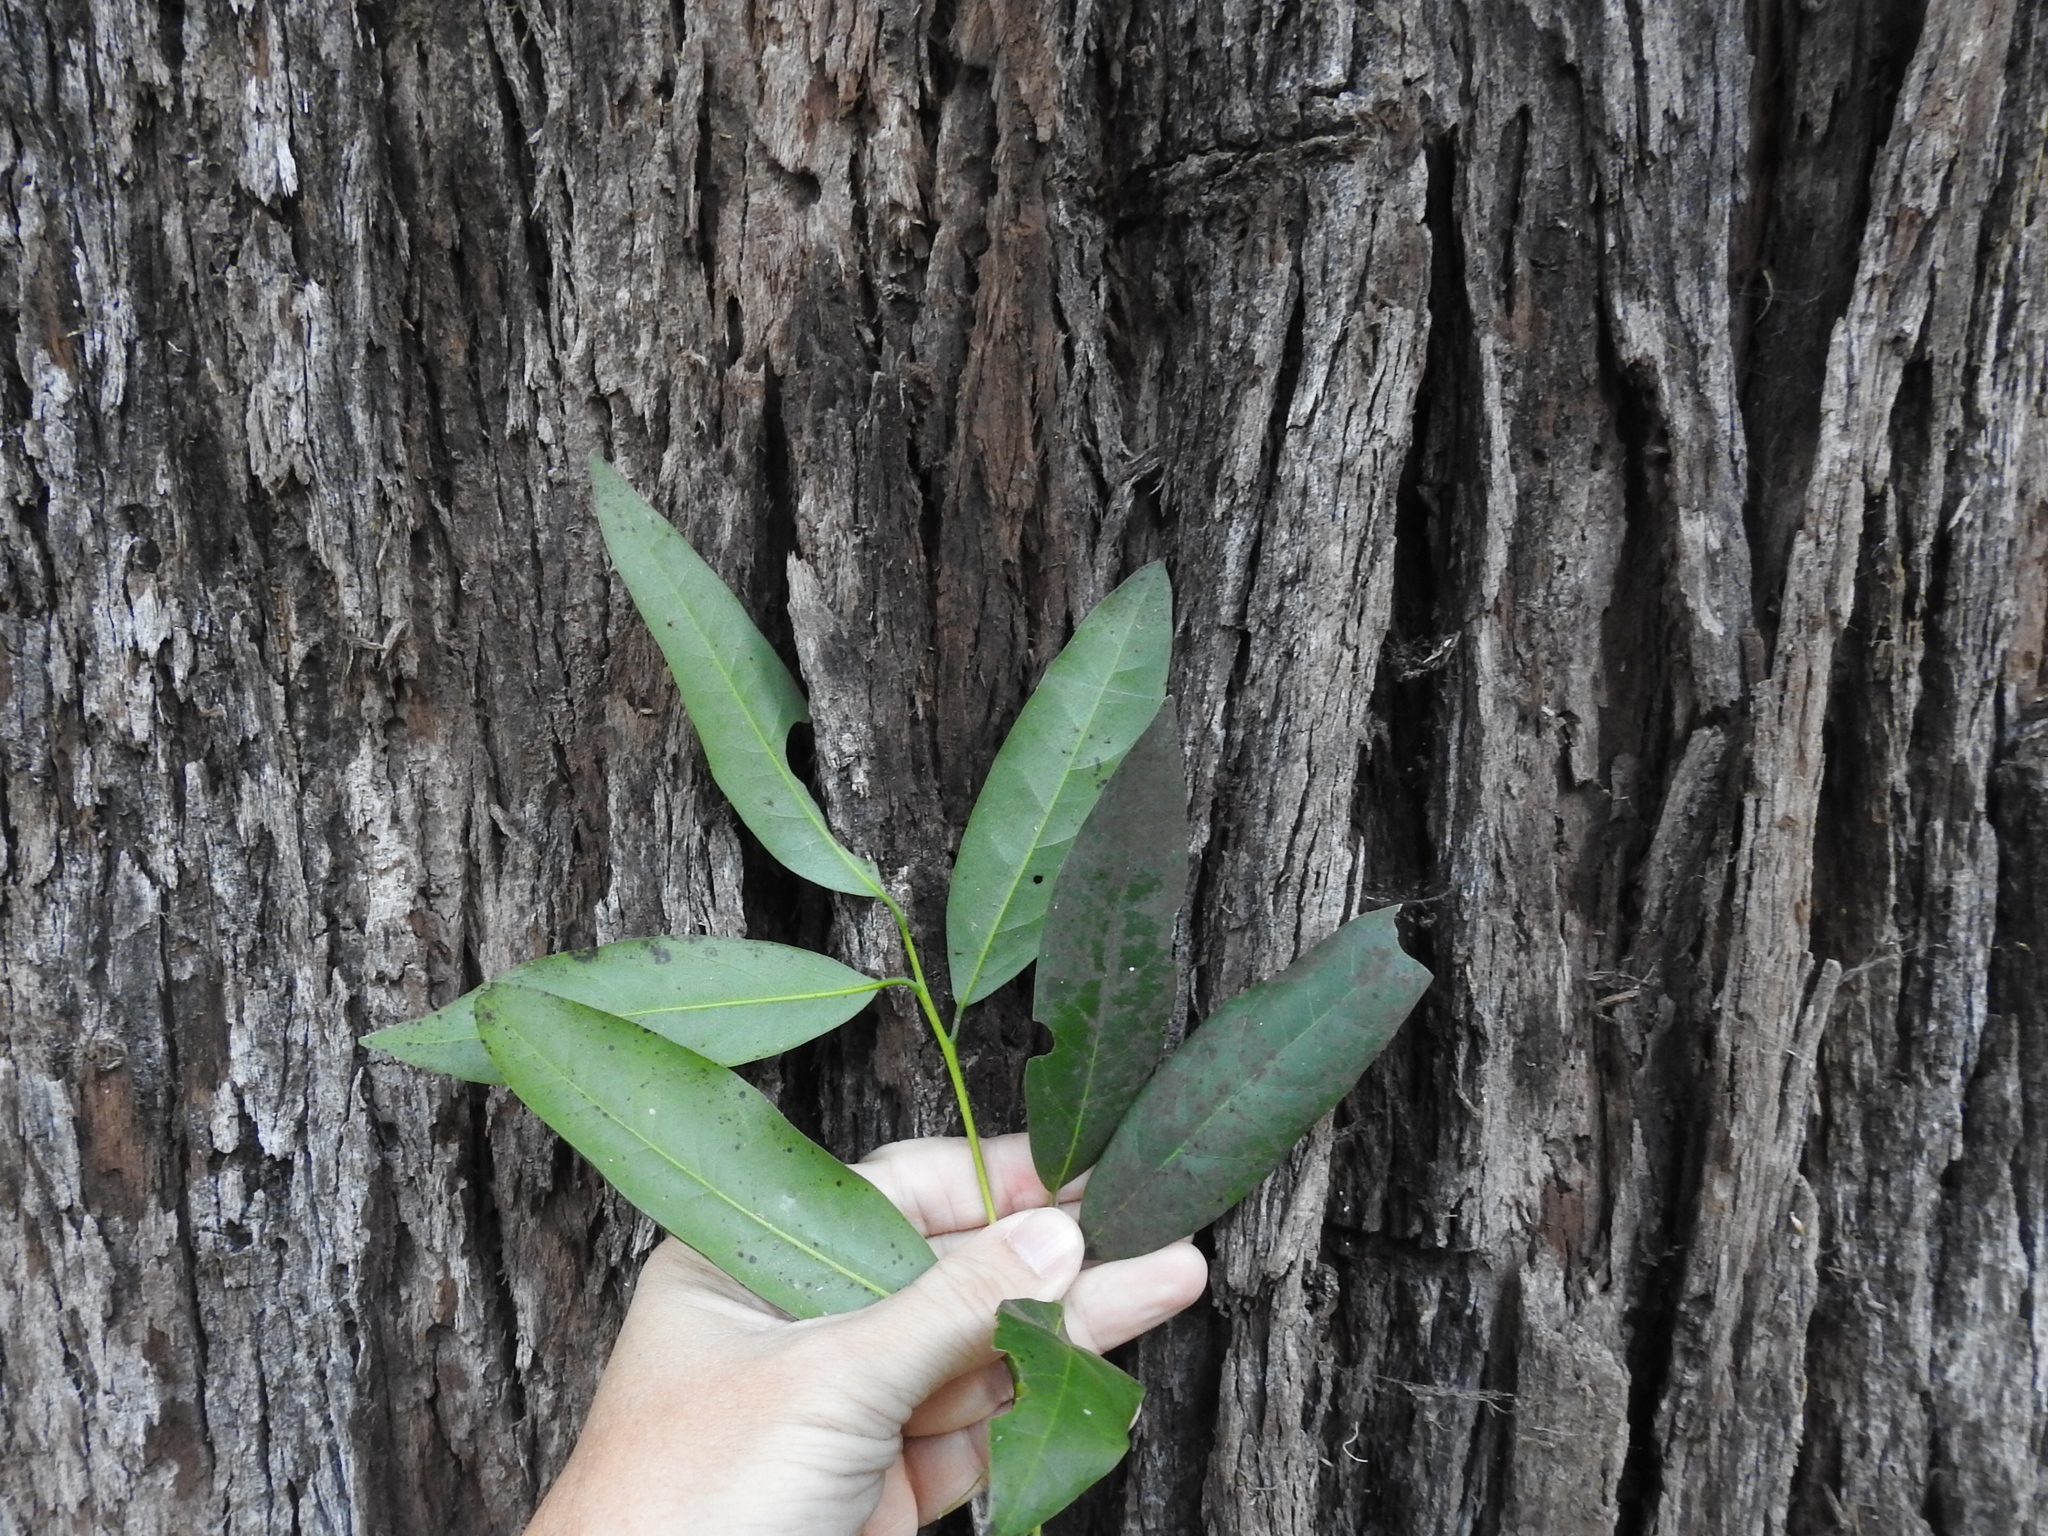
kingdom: Plantae
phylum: Tracheophyta
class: Magnoliopsida
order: Myrtales
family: Myrtaceae
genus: Eucalyptus
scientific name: Eucalyptus globulus
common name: Southern blue-gum
